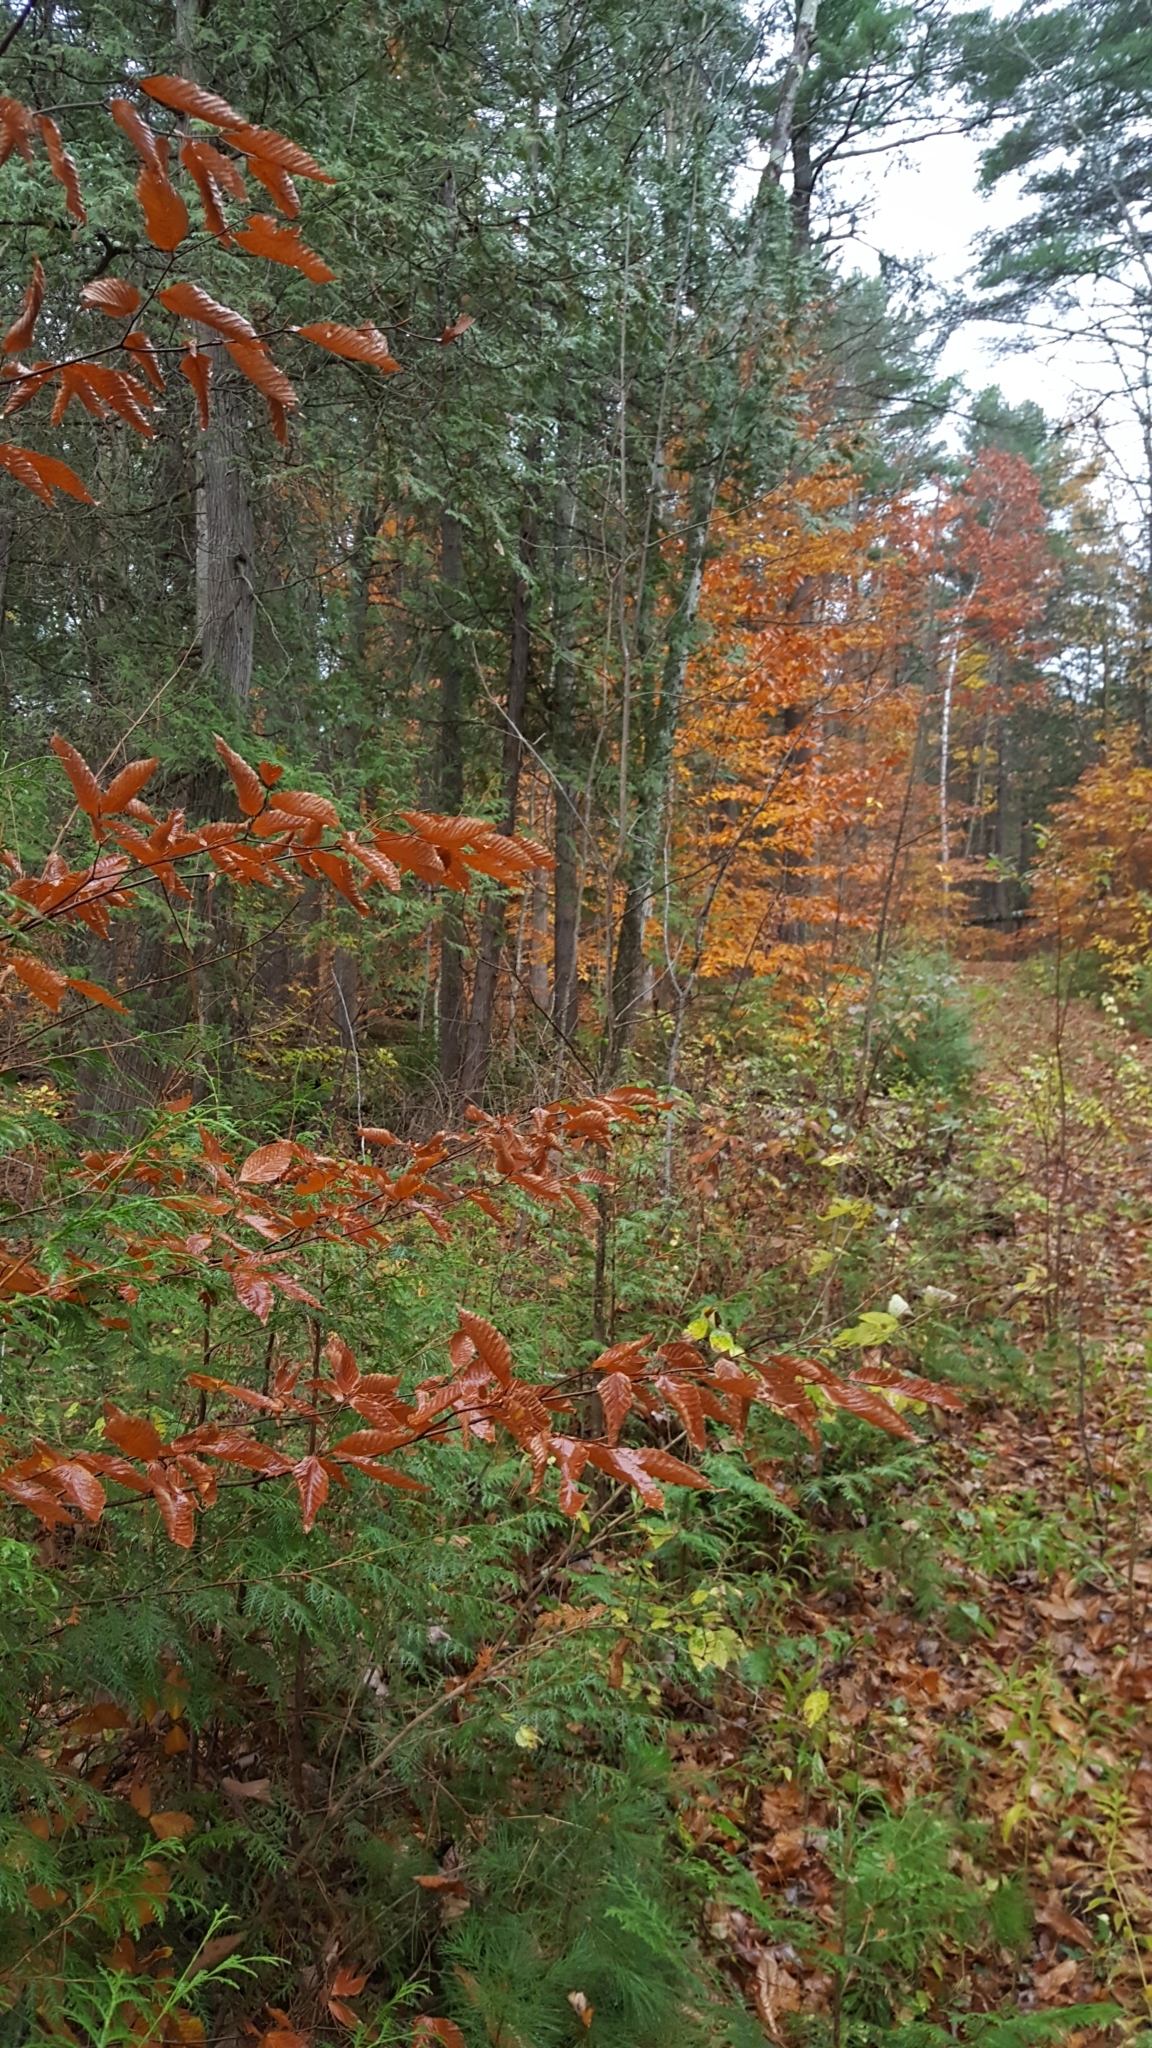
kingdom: Plantae
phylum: Tracheophyta
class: Magnoliopsida
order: Fagales
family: Fagaceae
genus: Fagus
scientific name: Fagus grandifolia
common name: American beech
